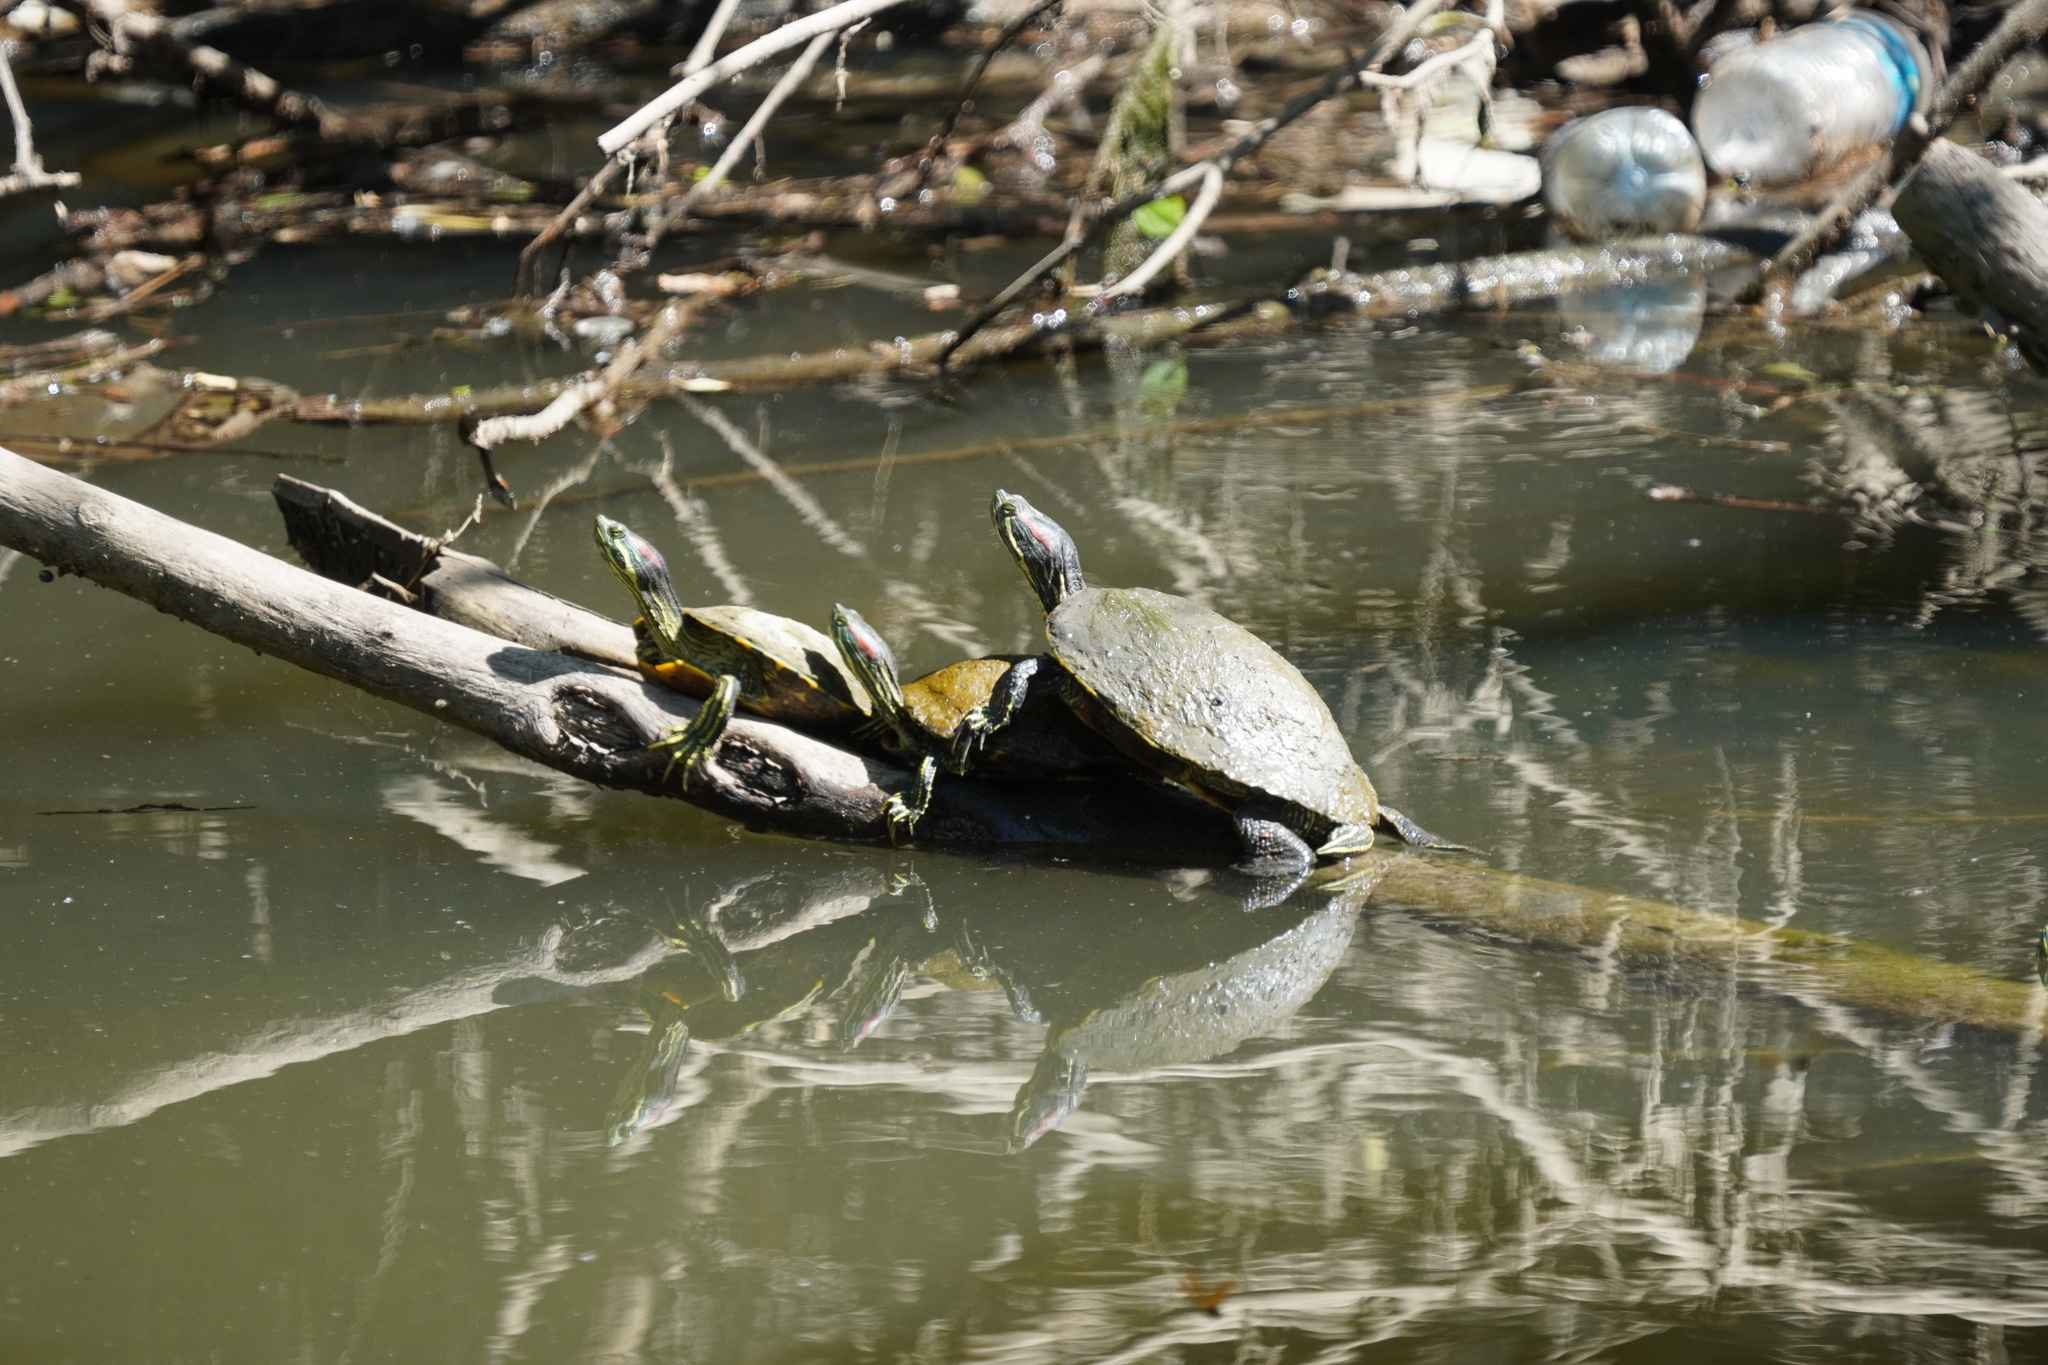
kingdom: Animalia
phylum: Chordata
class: Testudines
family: Emydidae
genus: Trachemys
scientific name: Trachemys scripta
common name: Slider
